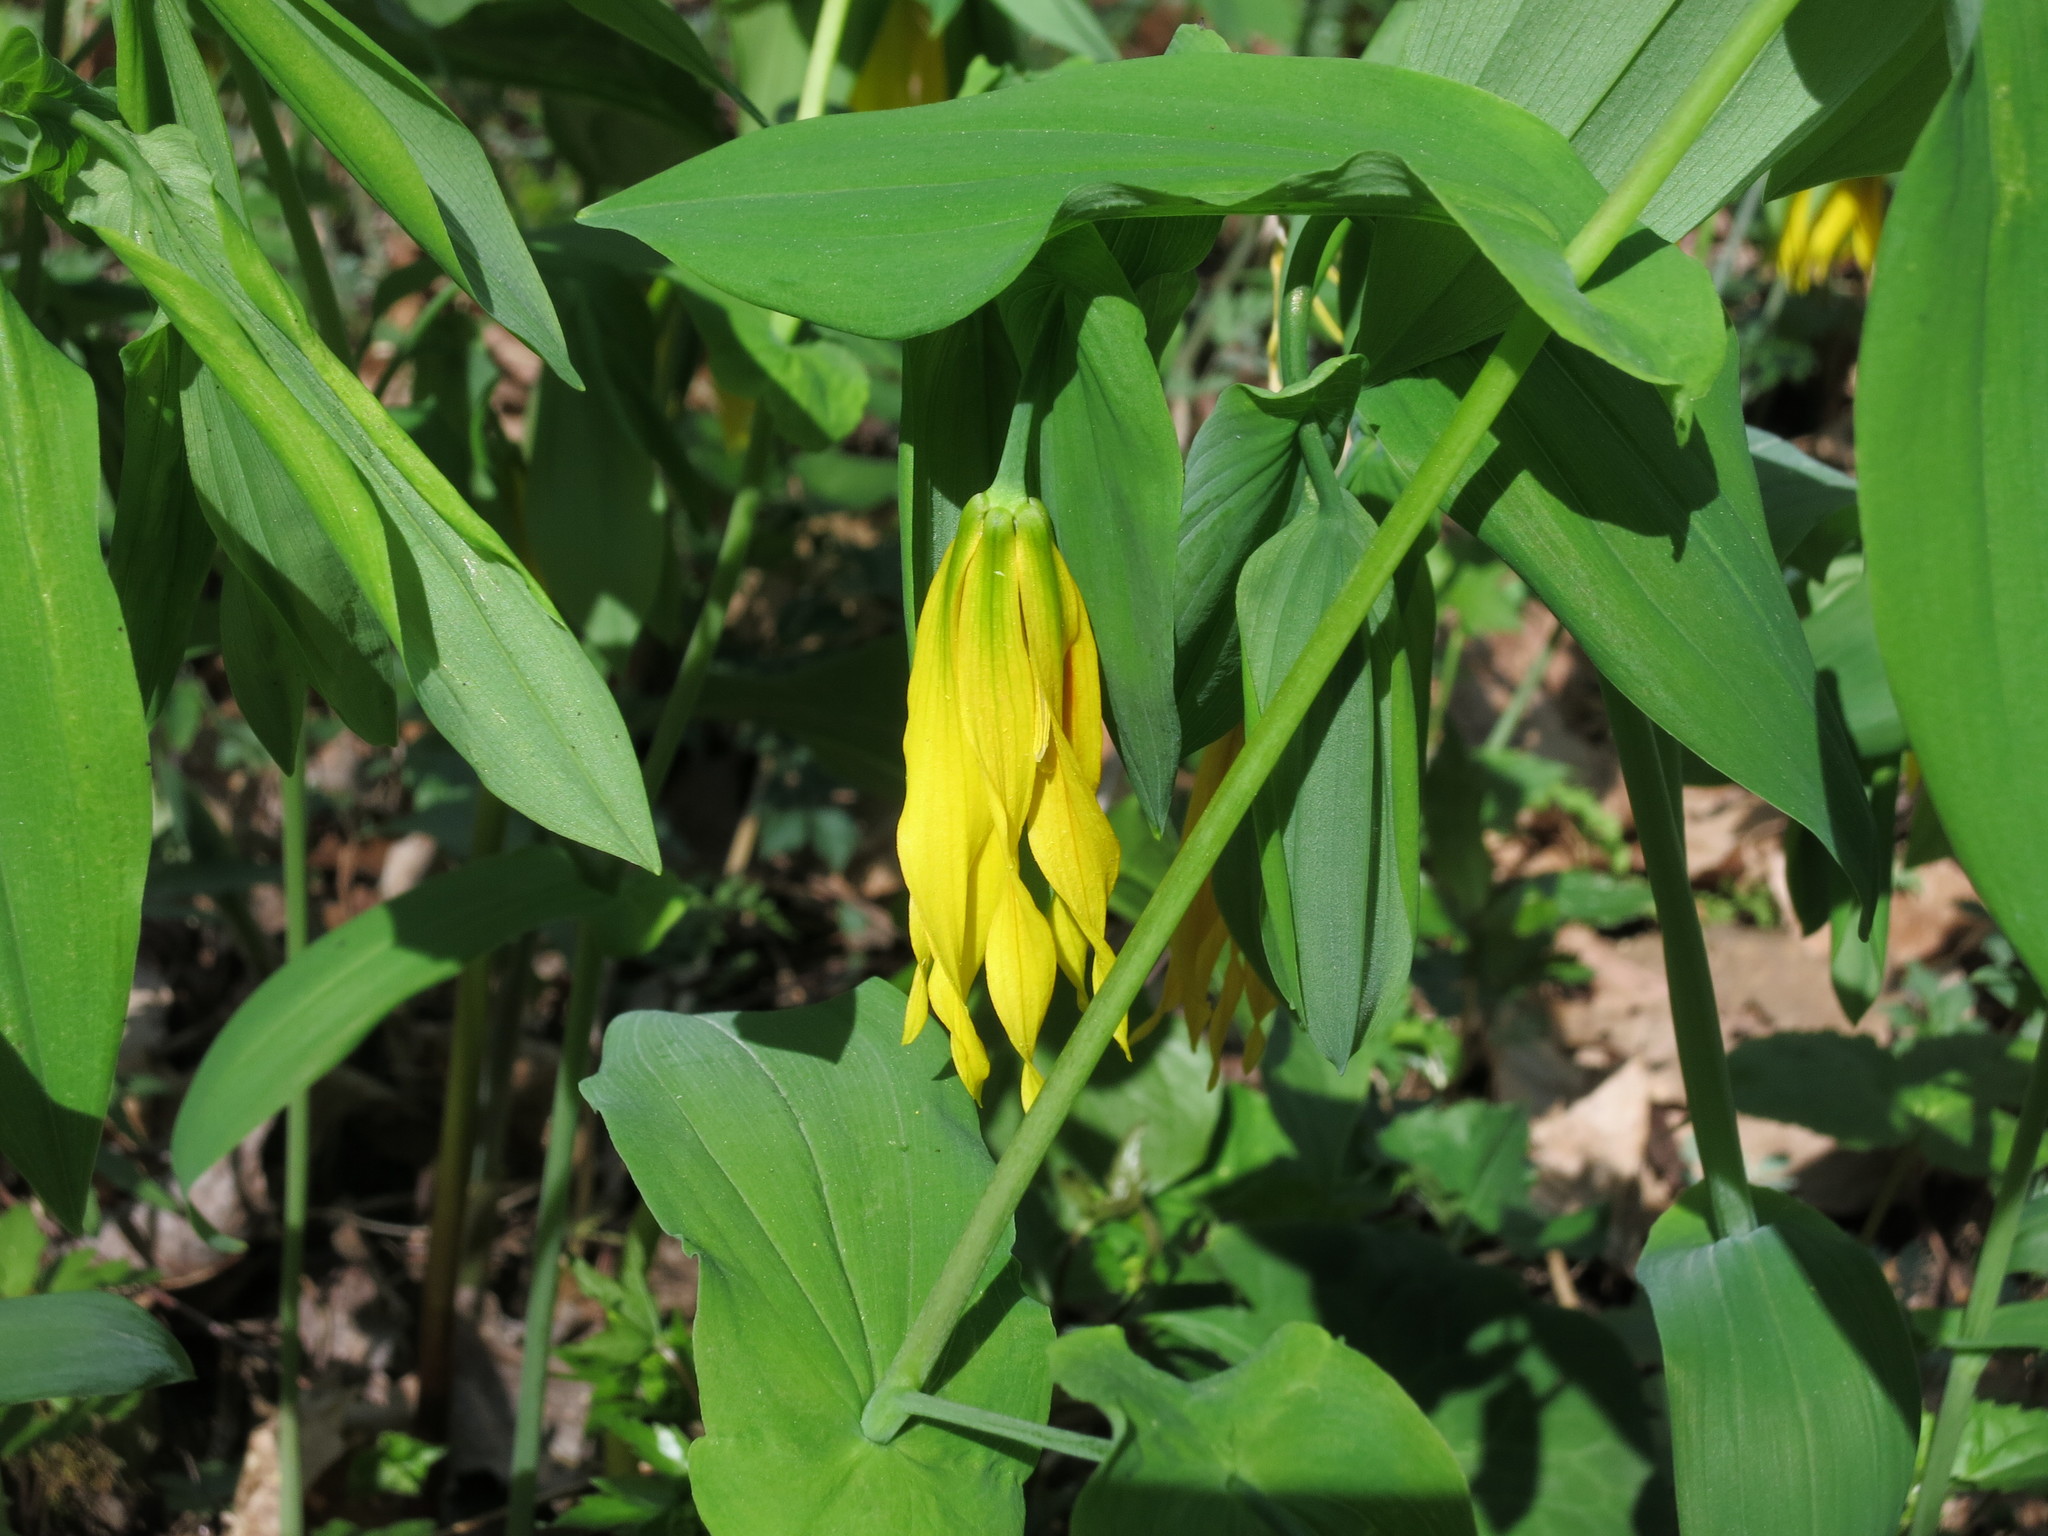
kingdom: Plantae
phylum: Tracheophyta
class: Liliopsida
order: Liliales
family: Colchicaceae
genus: Uvularia
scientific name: Uvularia grandiflora
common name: Bellwort
